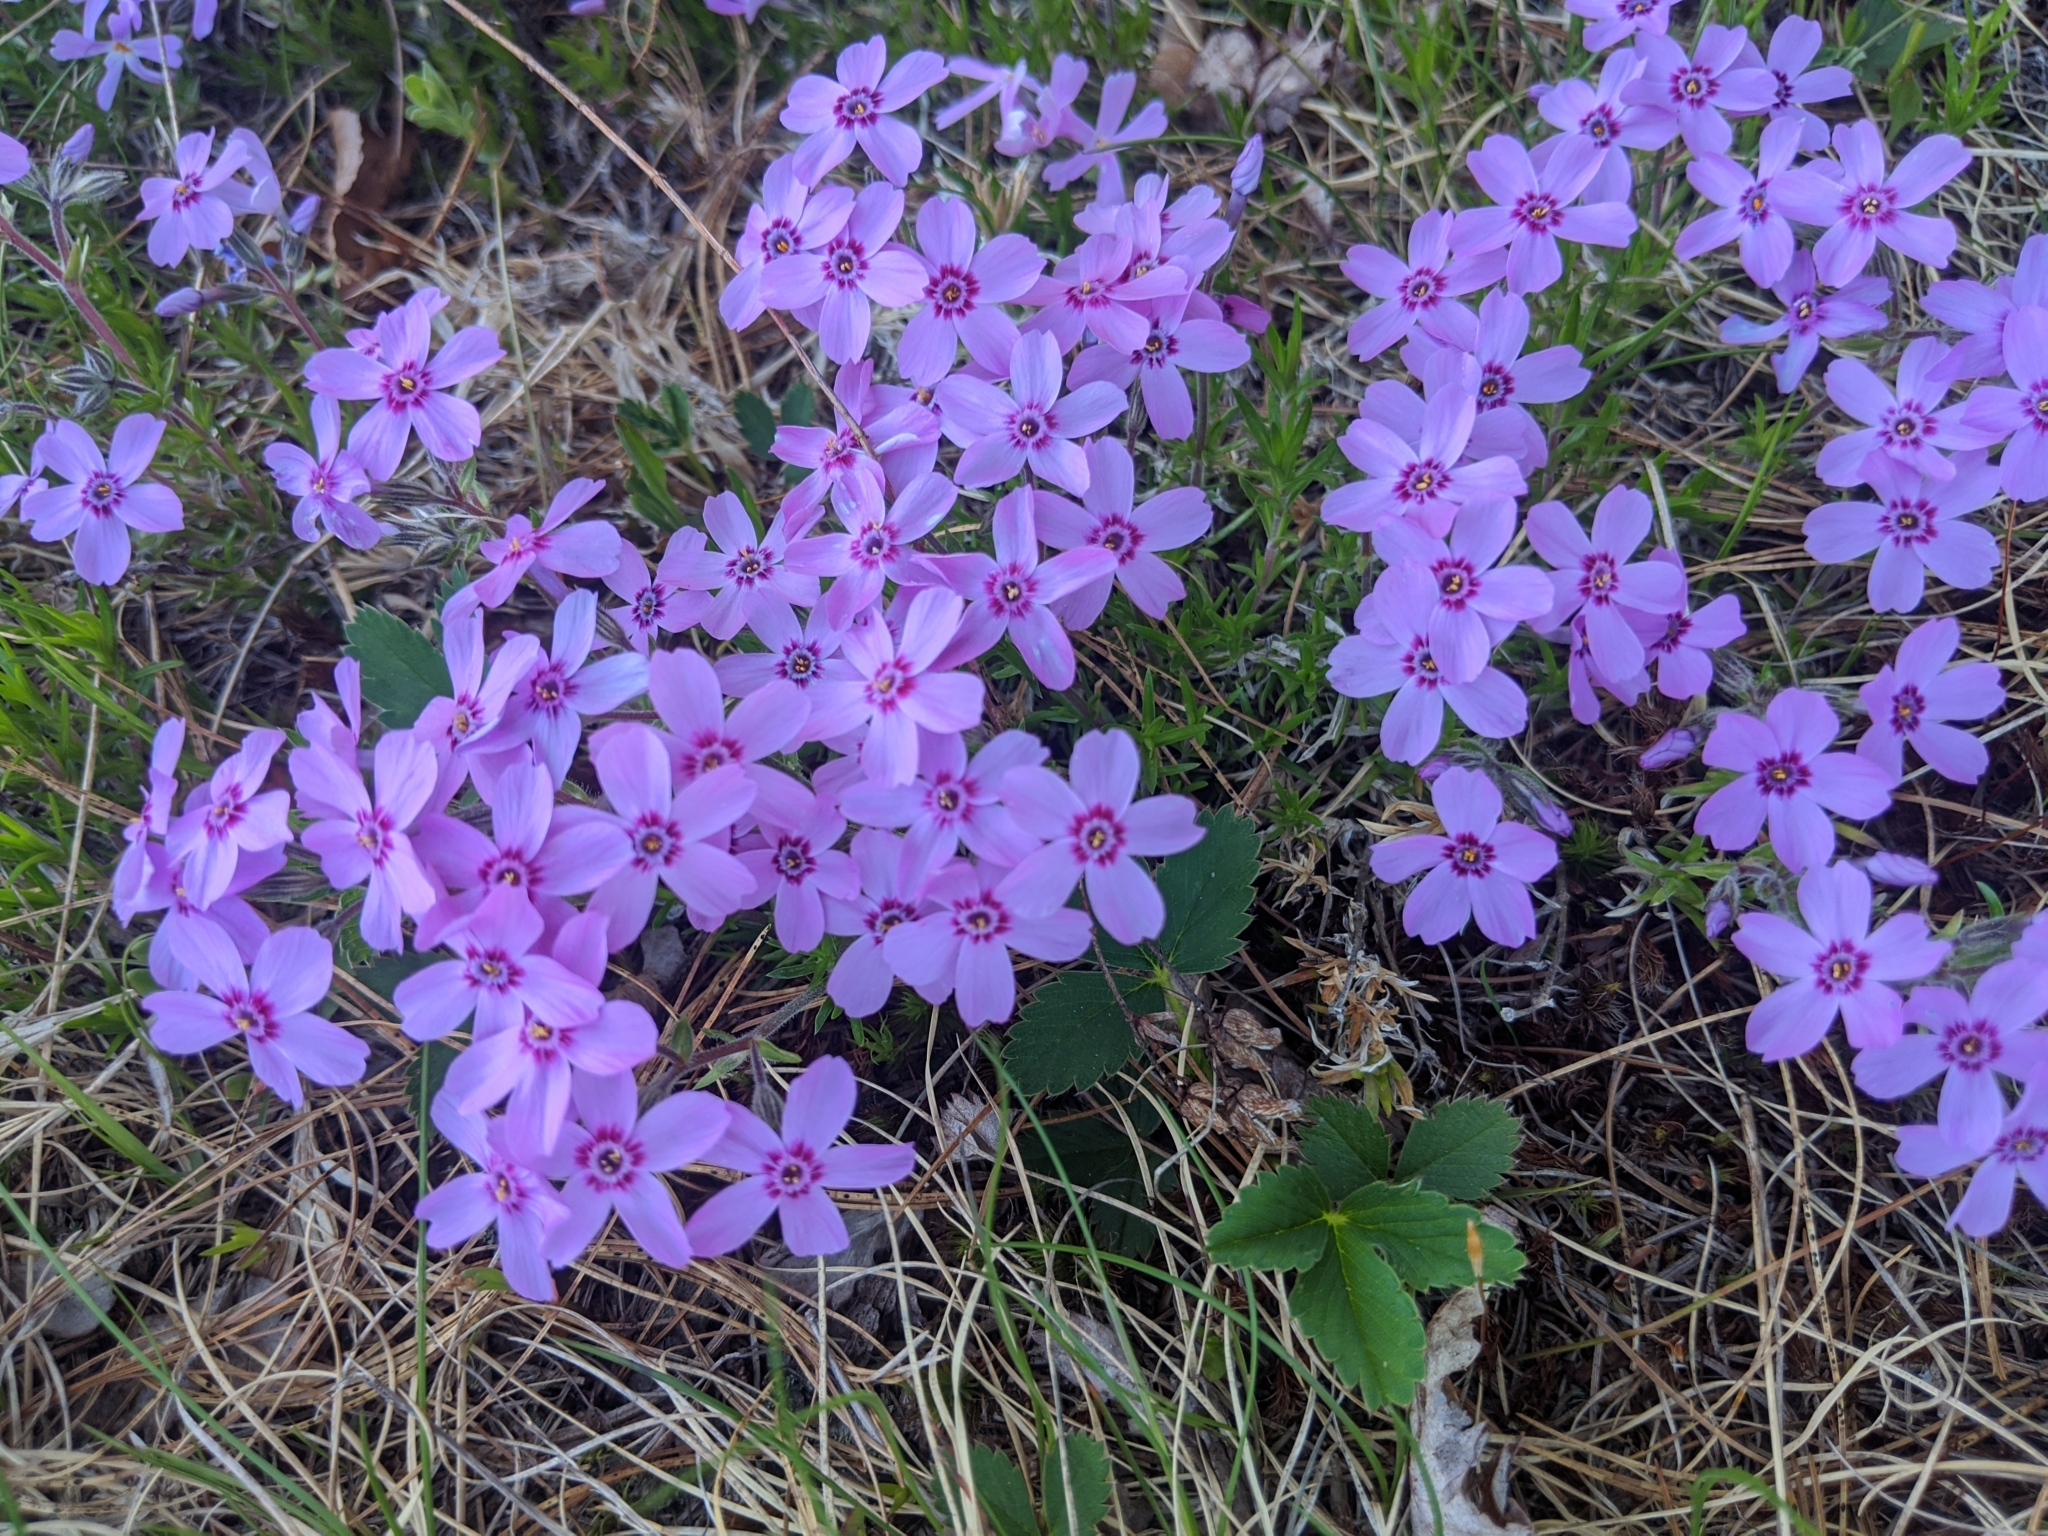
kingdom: Plantae
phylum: Tracheophyta
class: Magnoliopsida
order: Ericales
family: Polemoniaceae
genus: Phlox
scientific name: Phlox subulata
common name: Moss phlox
